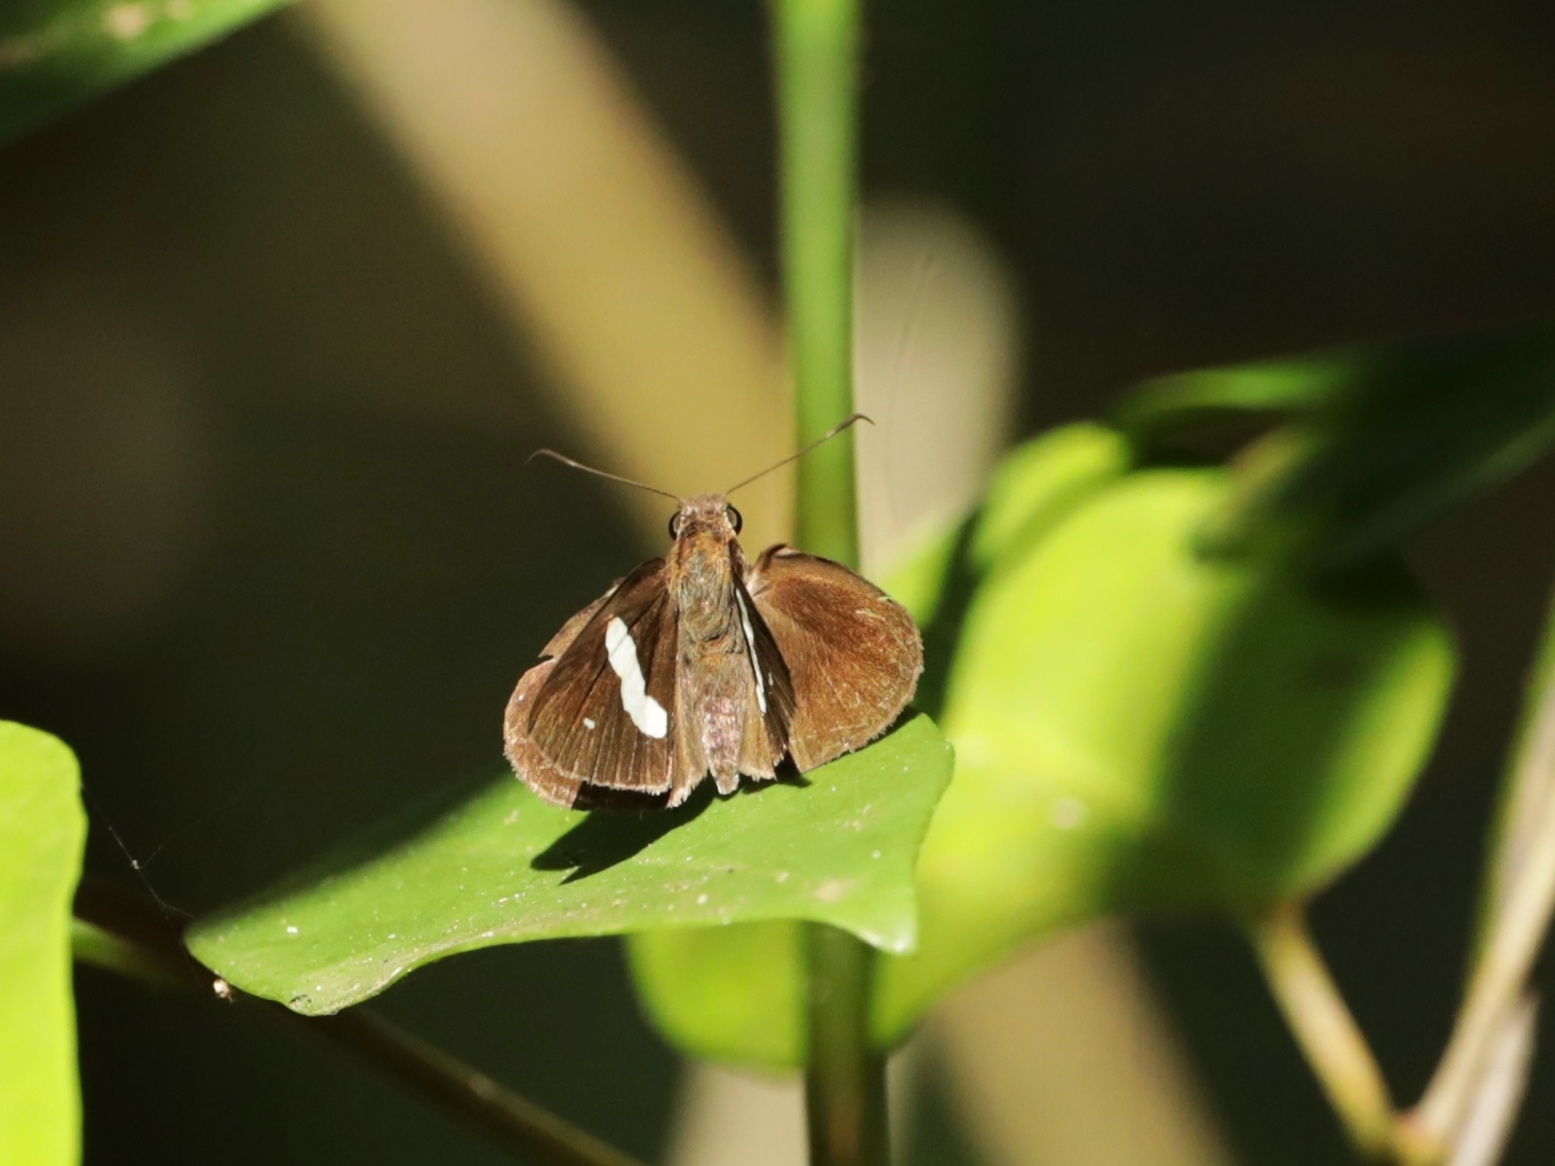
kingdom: Animalia
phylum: Arthropoda
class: Insecta
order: Lepidoptera
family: Hesperiidae
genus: Notocrypta
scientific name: Notocrypta paralysos
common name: Common banded demon
